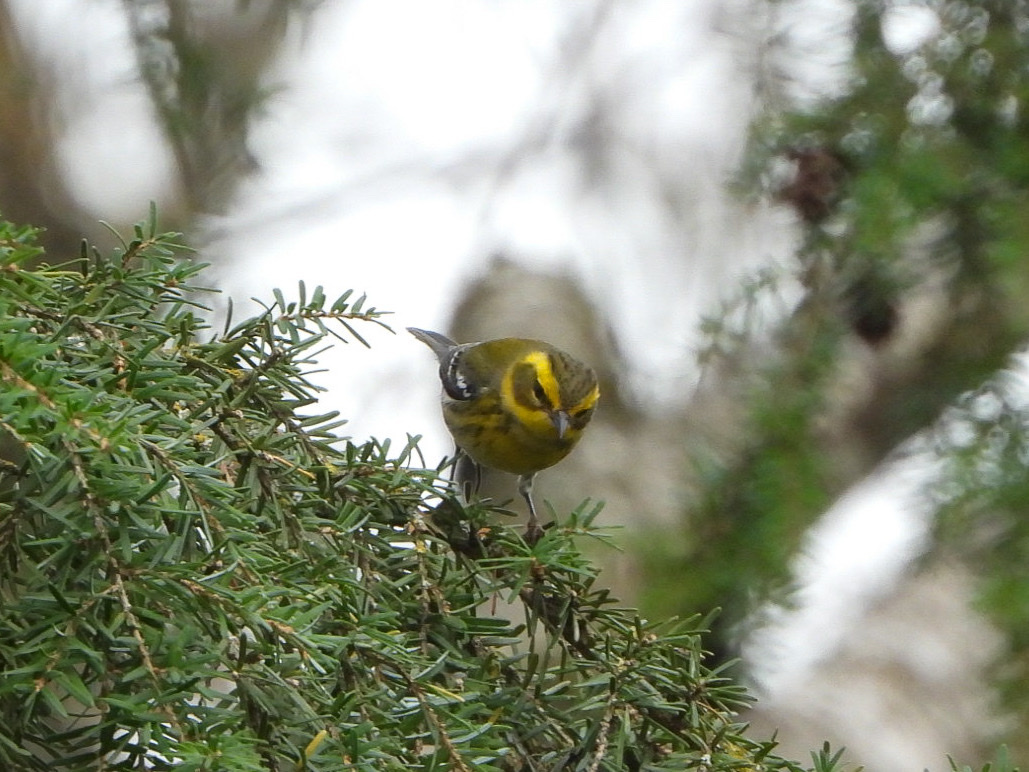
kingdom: Animalia
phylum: Chordata
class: Aves
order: Passeriformes
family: Parulidae
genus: Setophaga
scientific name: Setophaga townsendi
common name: Townsend's warbler
